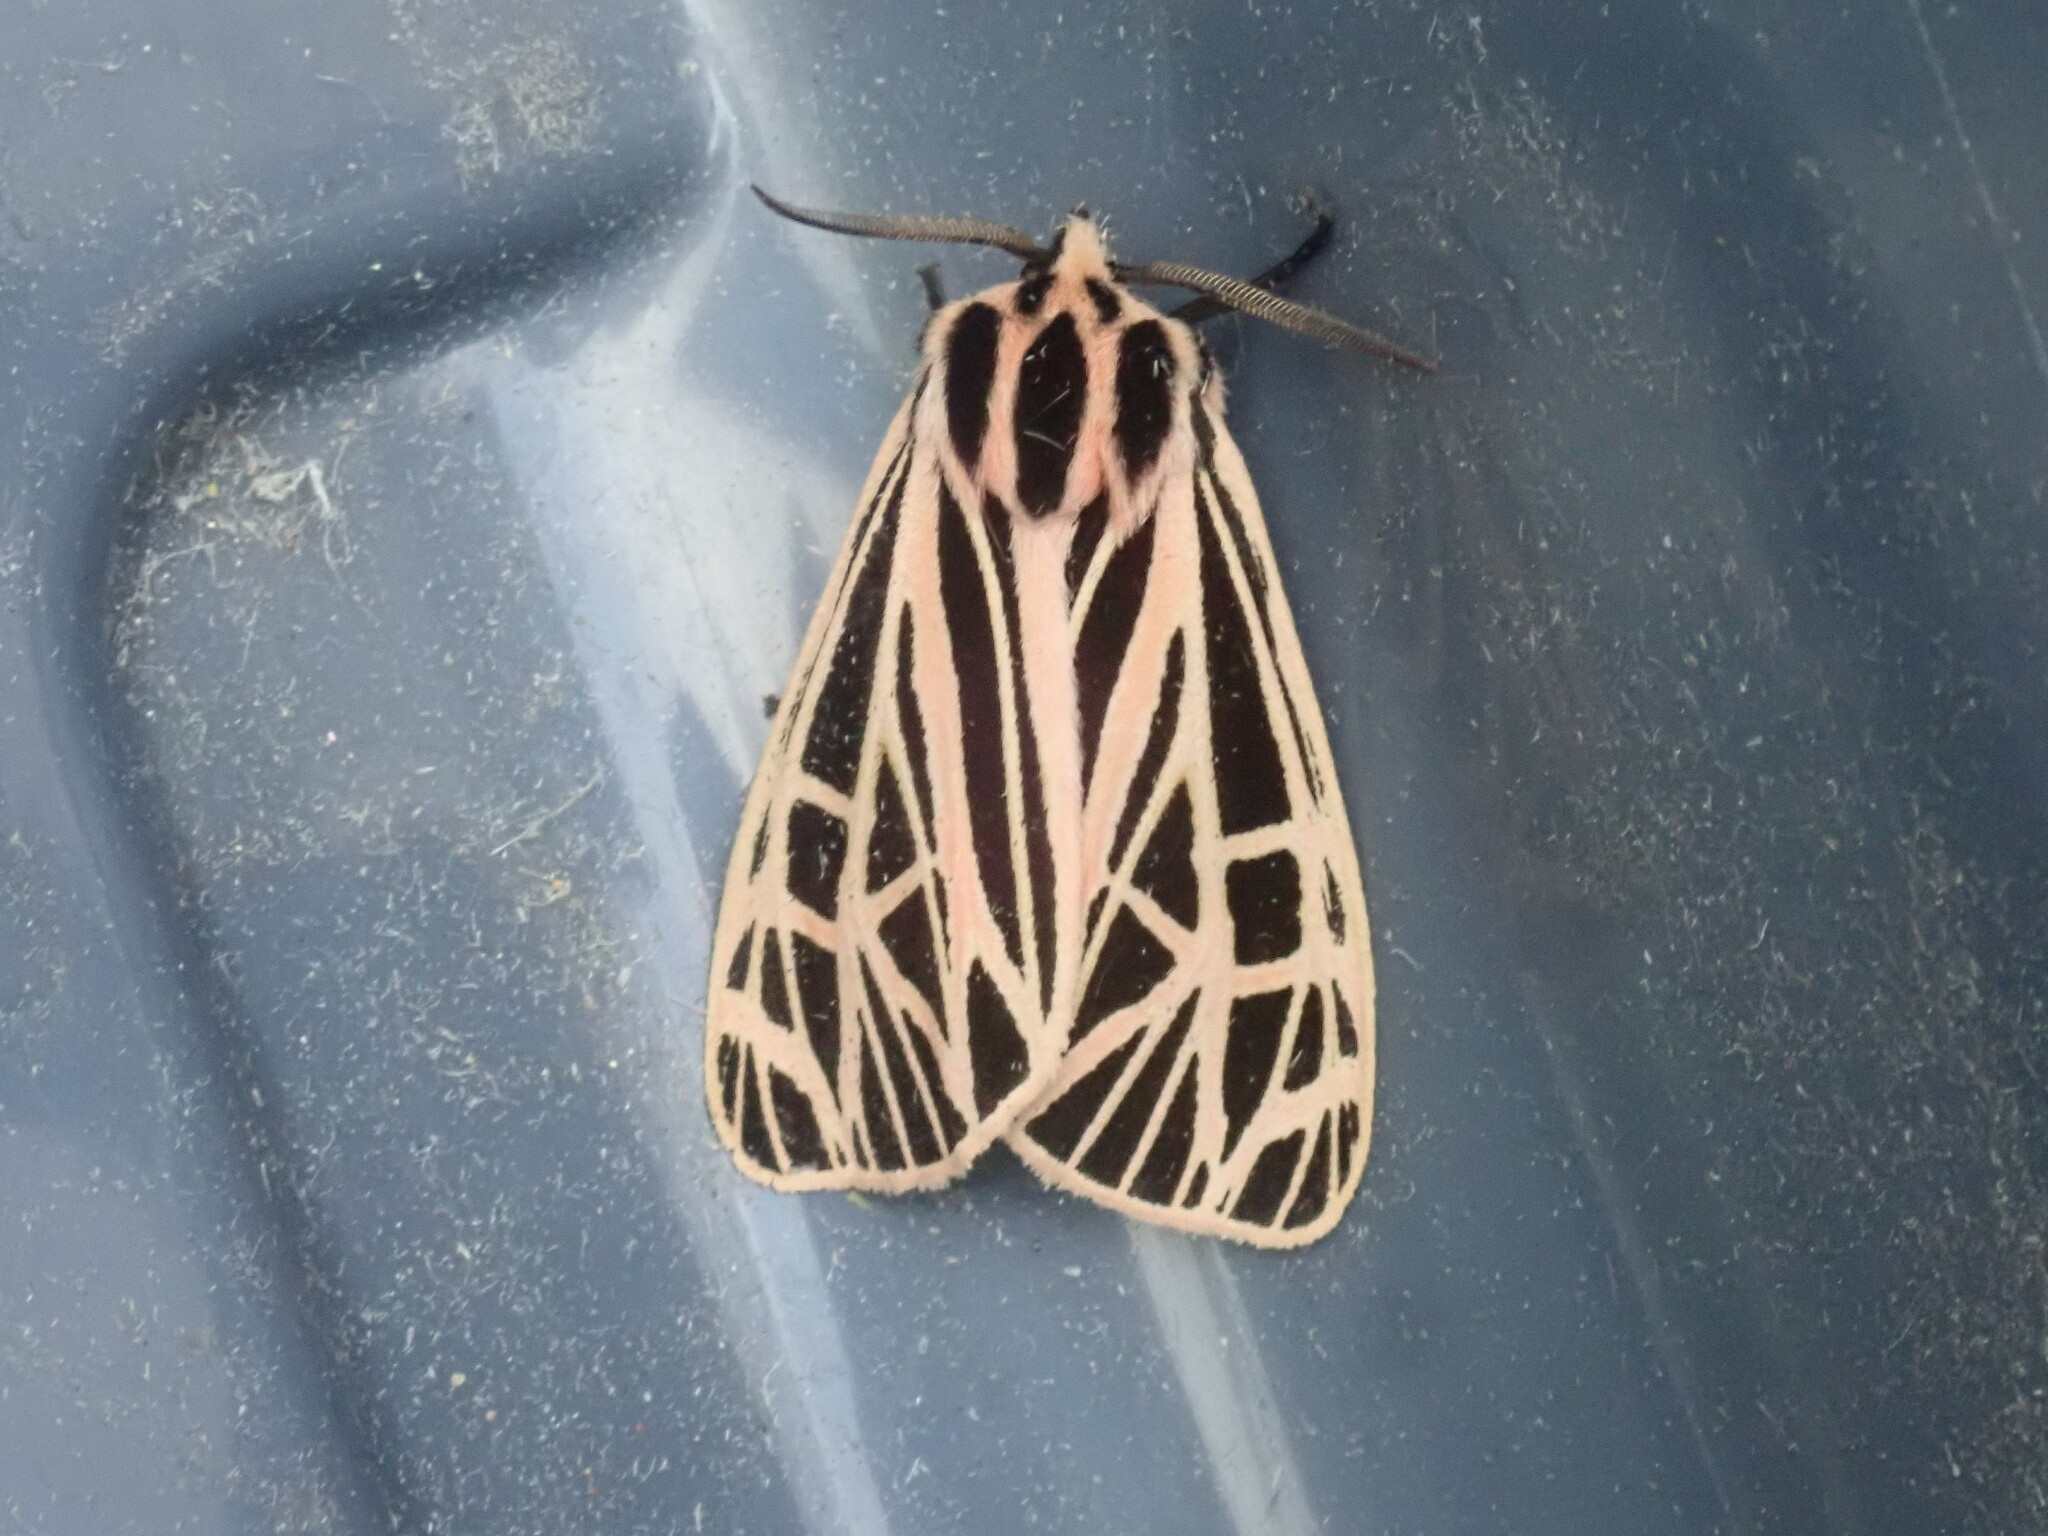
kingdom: Animalia
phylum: Arthropoda
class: Insecta
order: Lepidoptera
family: Erebidae
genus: Grammia
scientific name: Grammia virgo
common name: Virgin tiger moth
